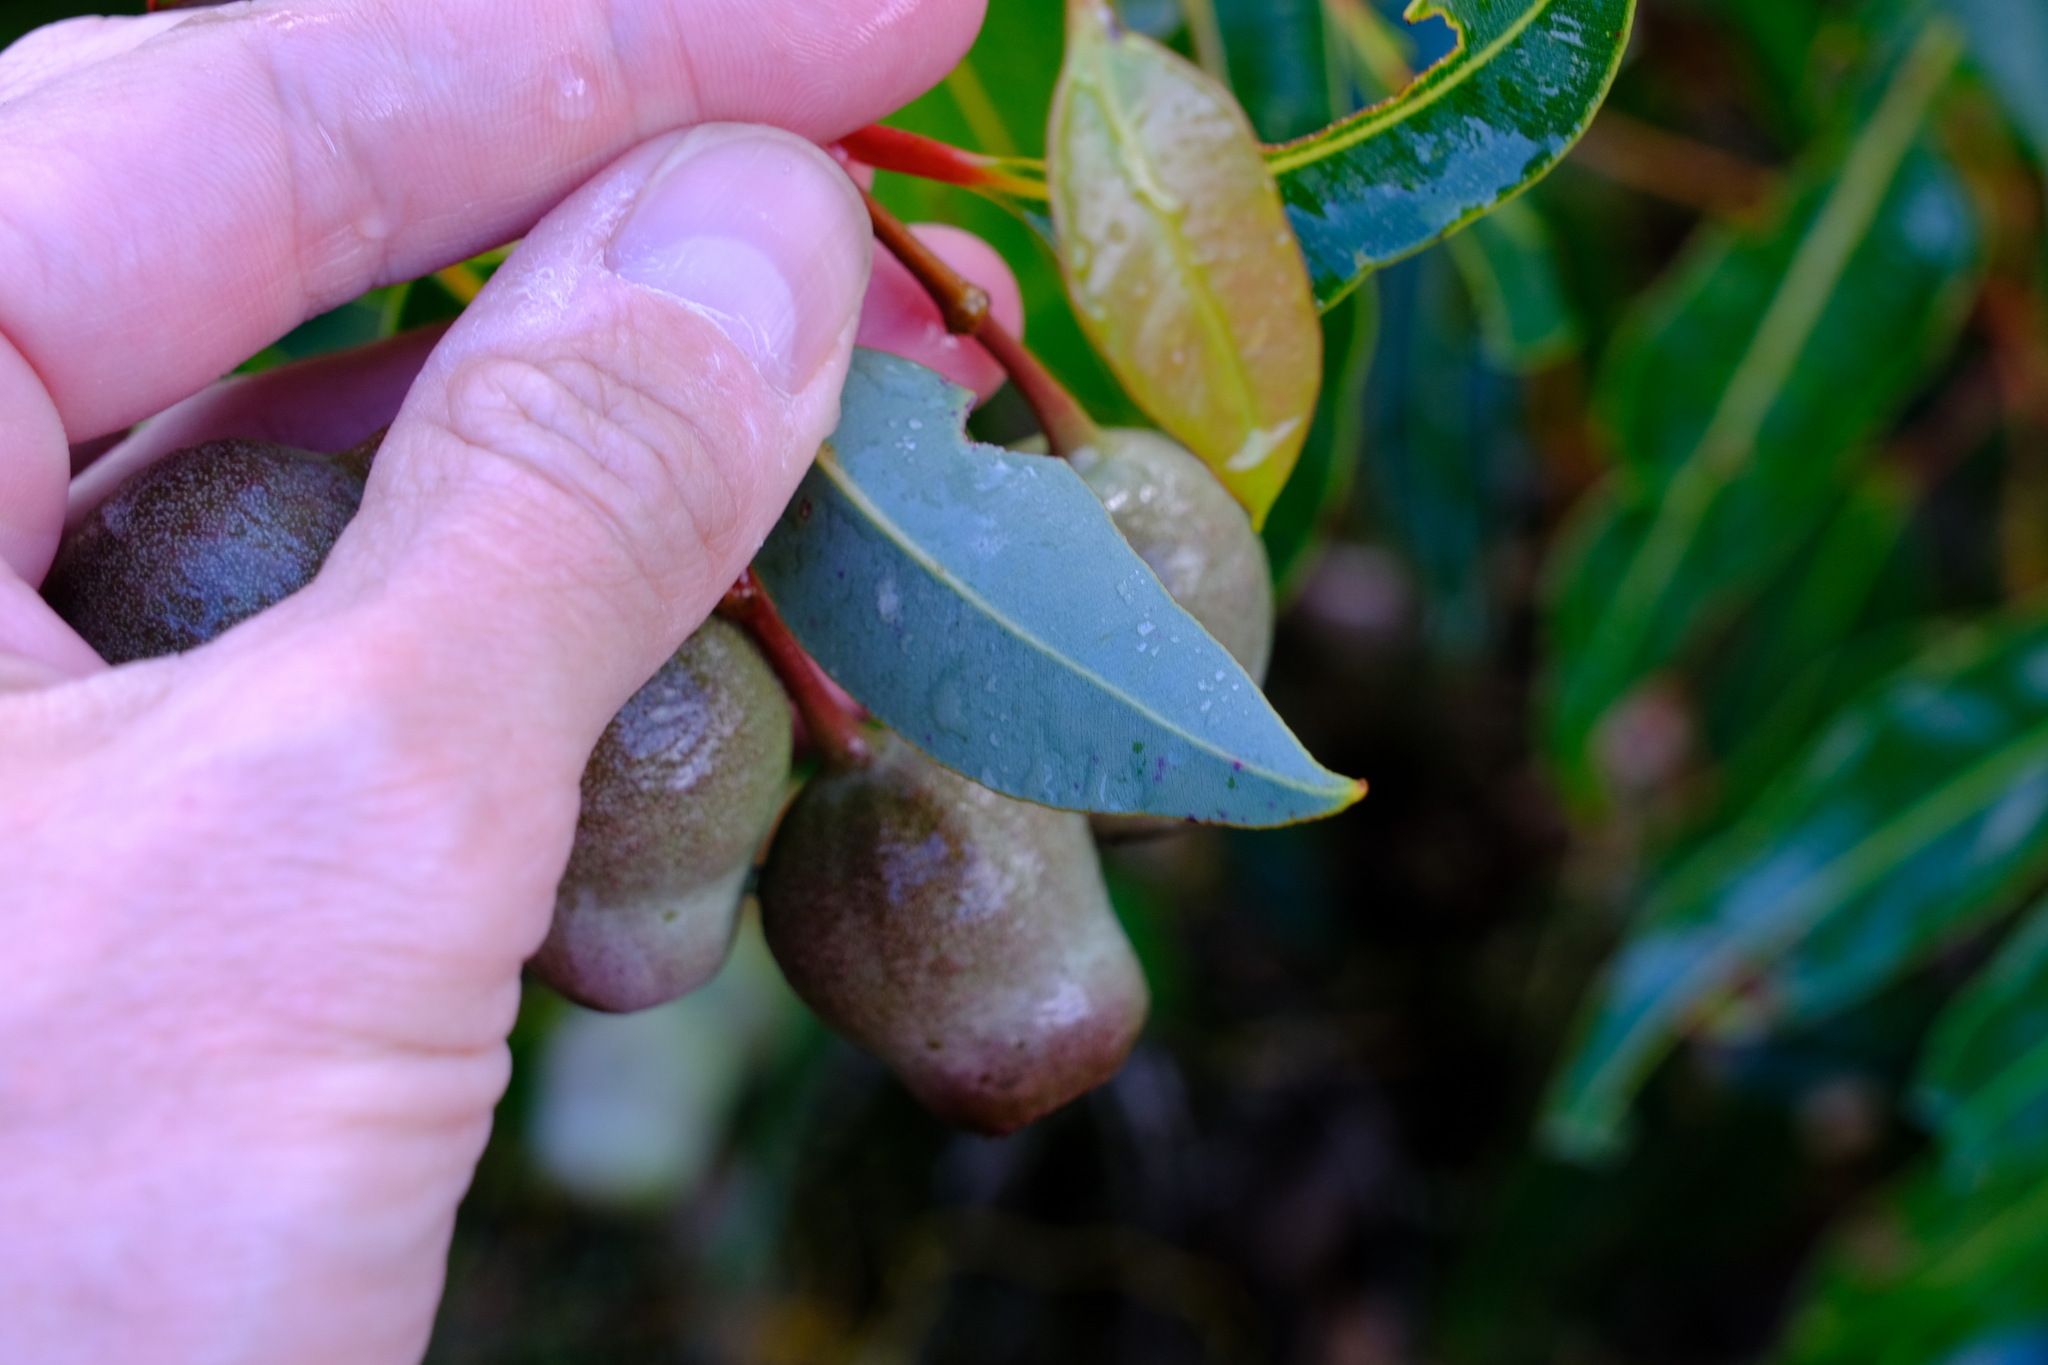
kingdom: Plantae
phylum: Tracheophyta
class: Magnoliopsida
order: Myrtales
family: Myrtaceae
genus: Corymbia
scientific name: Corymbia calophylla
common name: Marri
